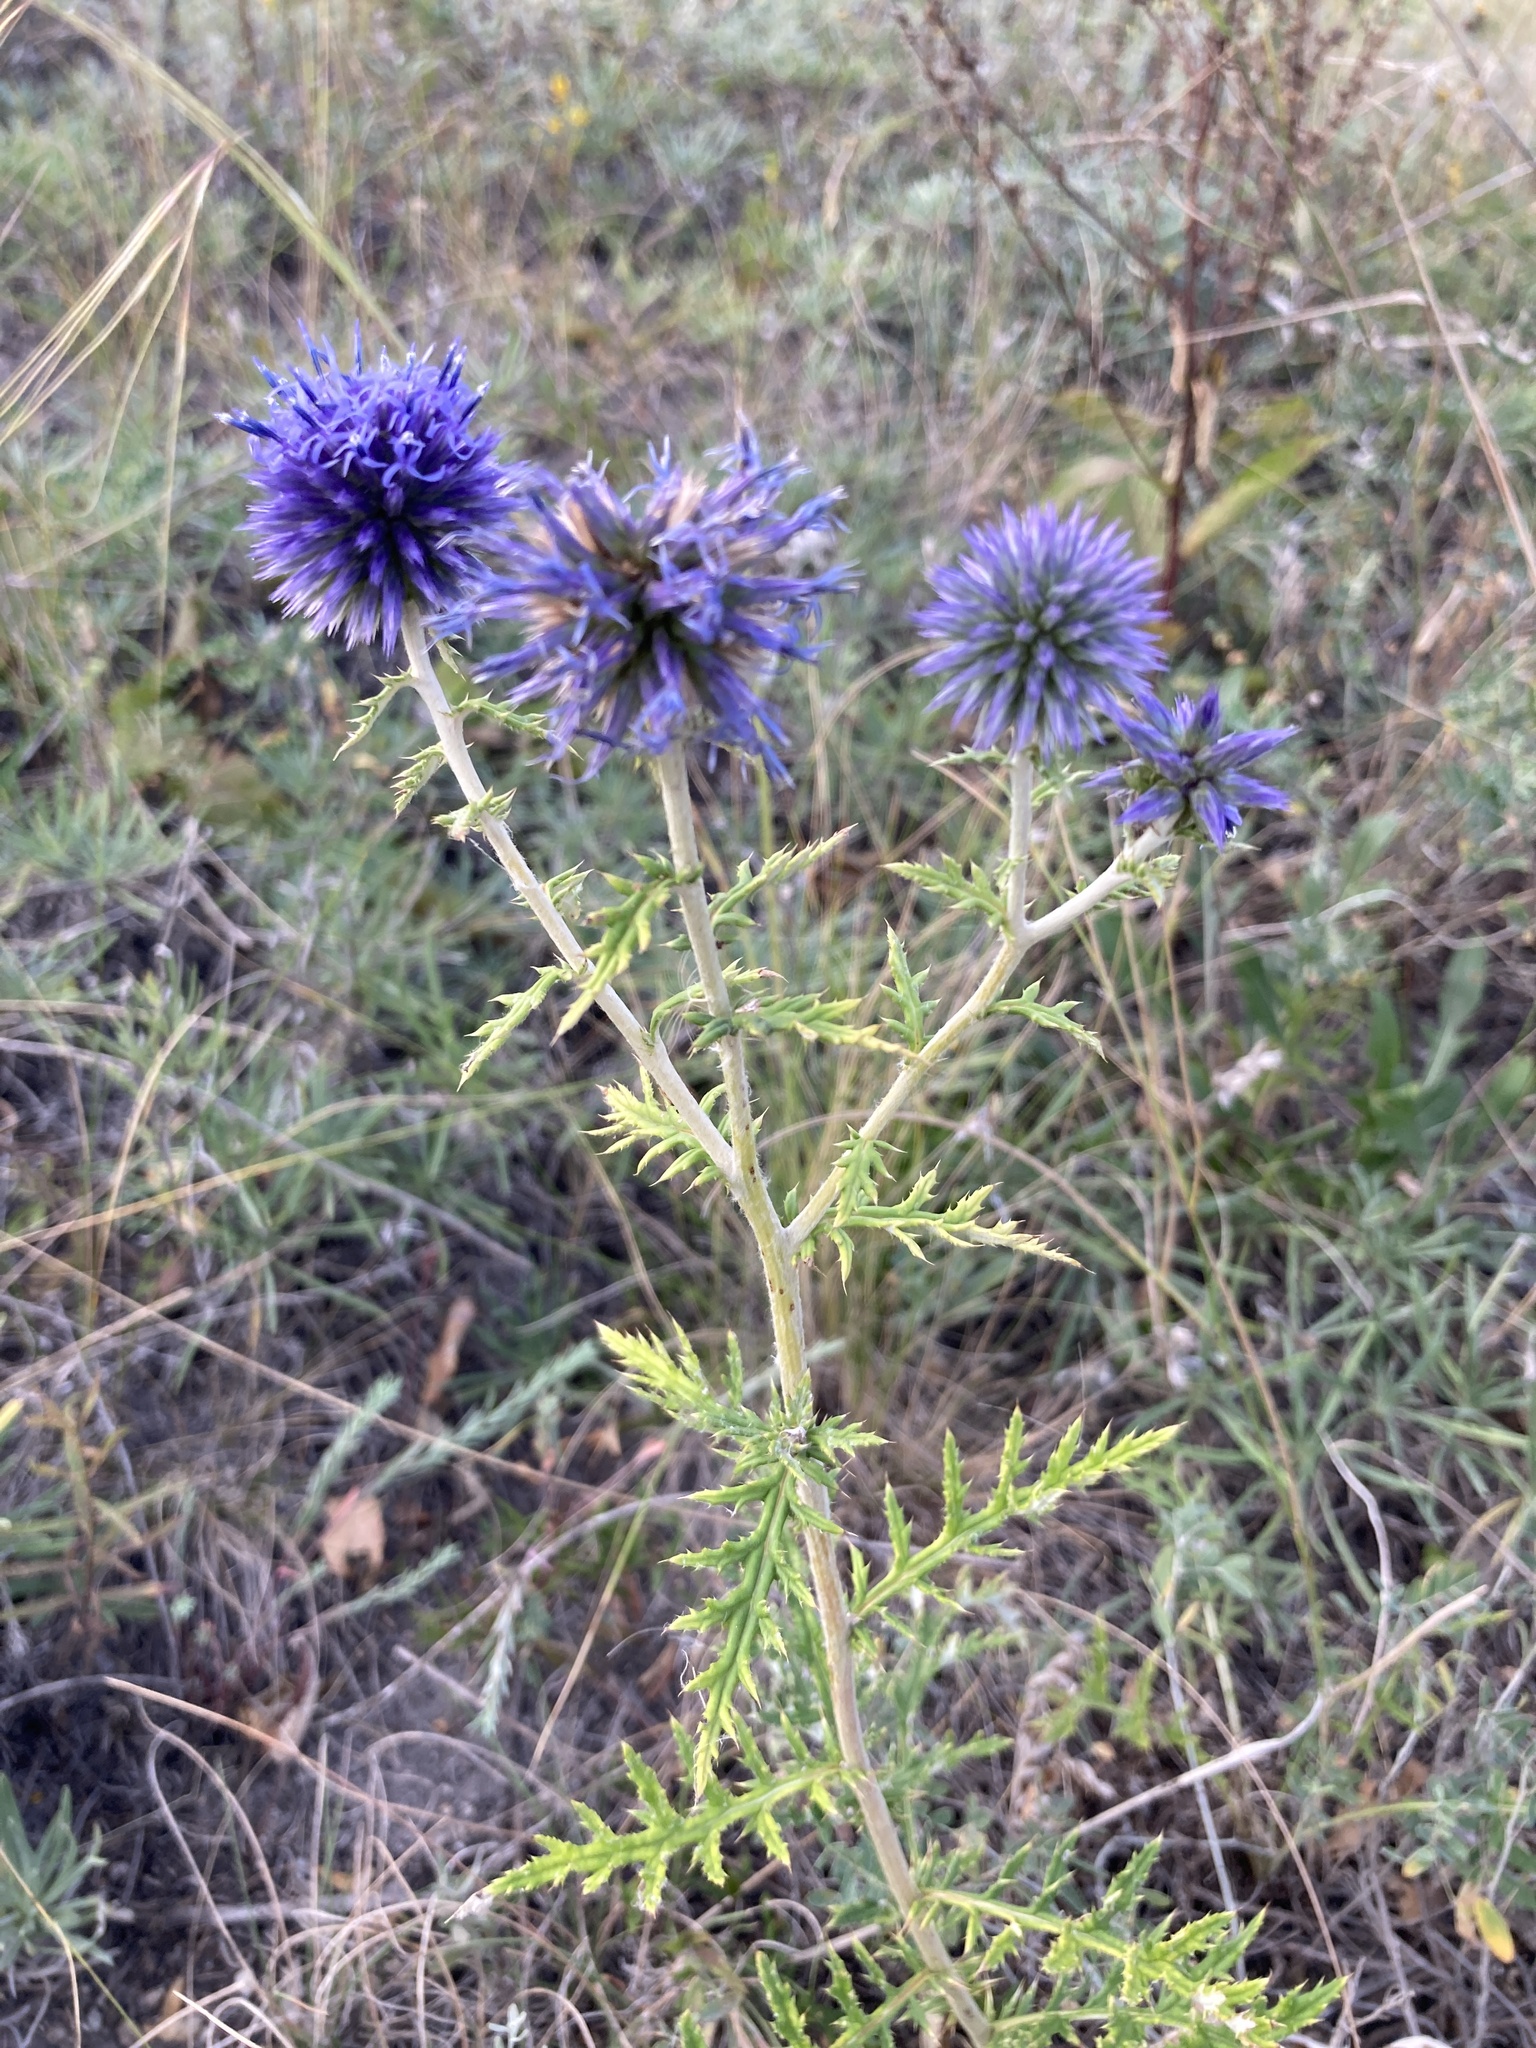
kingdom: Plantae
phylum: Tracheophyta
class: Magnoliopsida
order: Asterales
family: Asteraceae
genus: Echinops
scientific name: Echinops ritro
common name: Globe thistle
